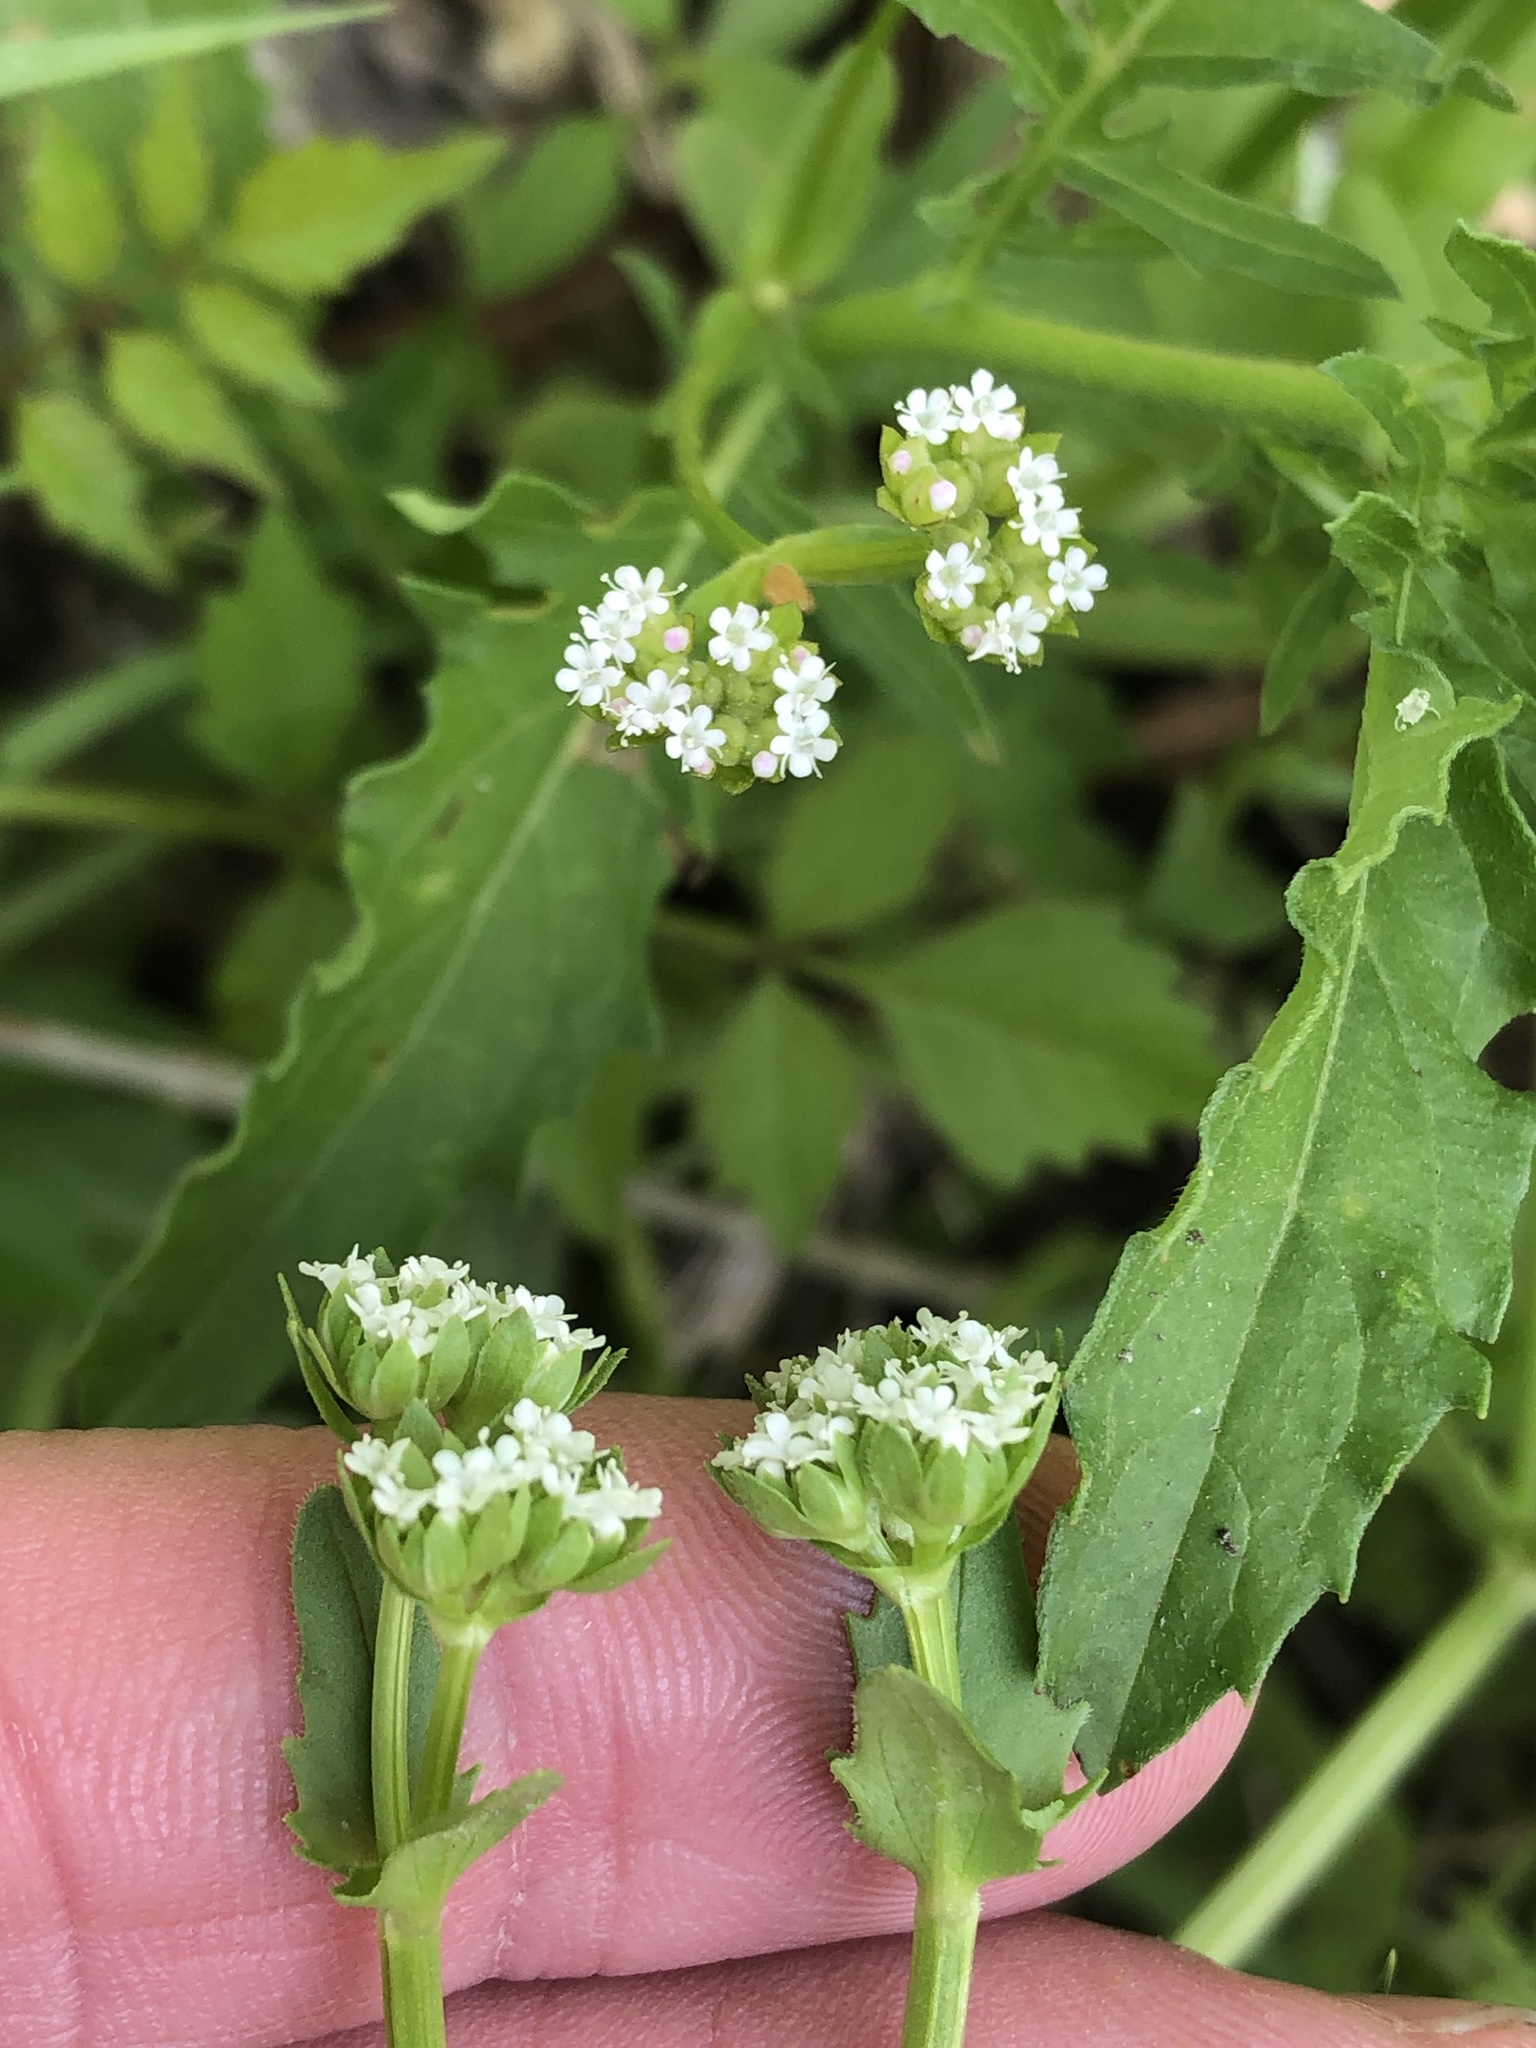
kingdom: Plantae
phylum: Tracheophyta
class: Magnoliopsida
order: Dipsacales
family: Caprifoliaceae
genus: Valerianella
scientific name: Valerianella radiata
